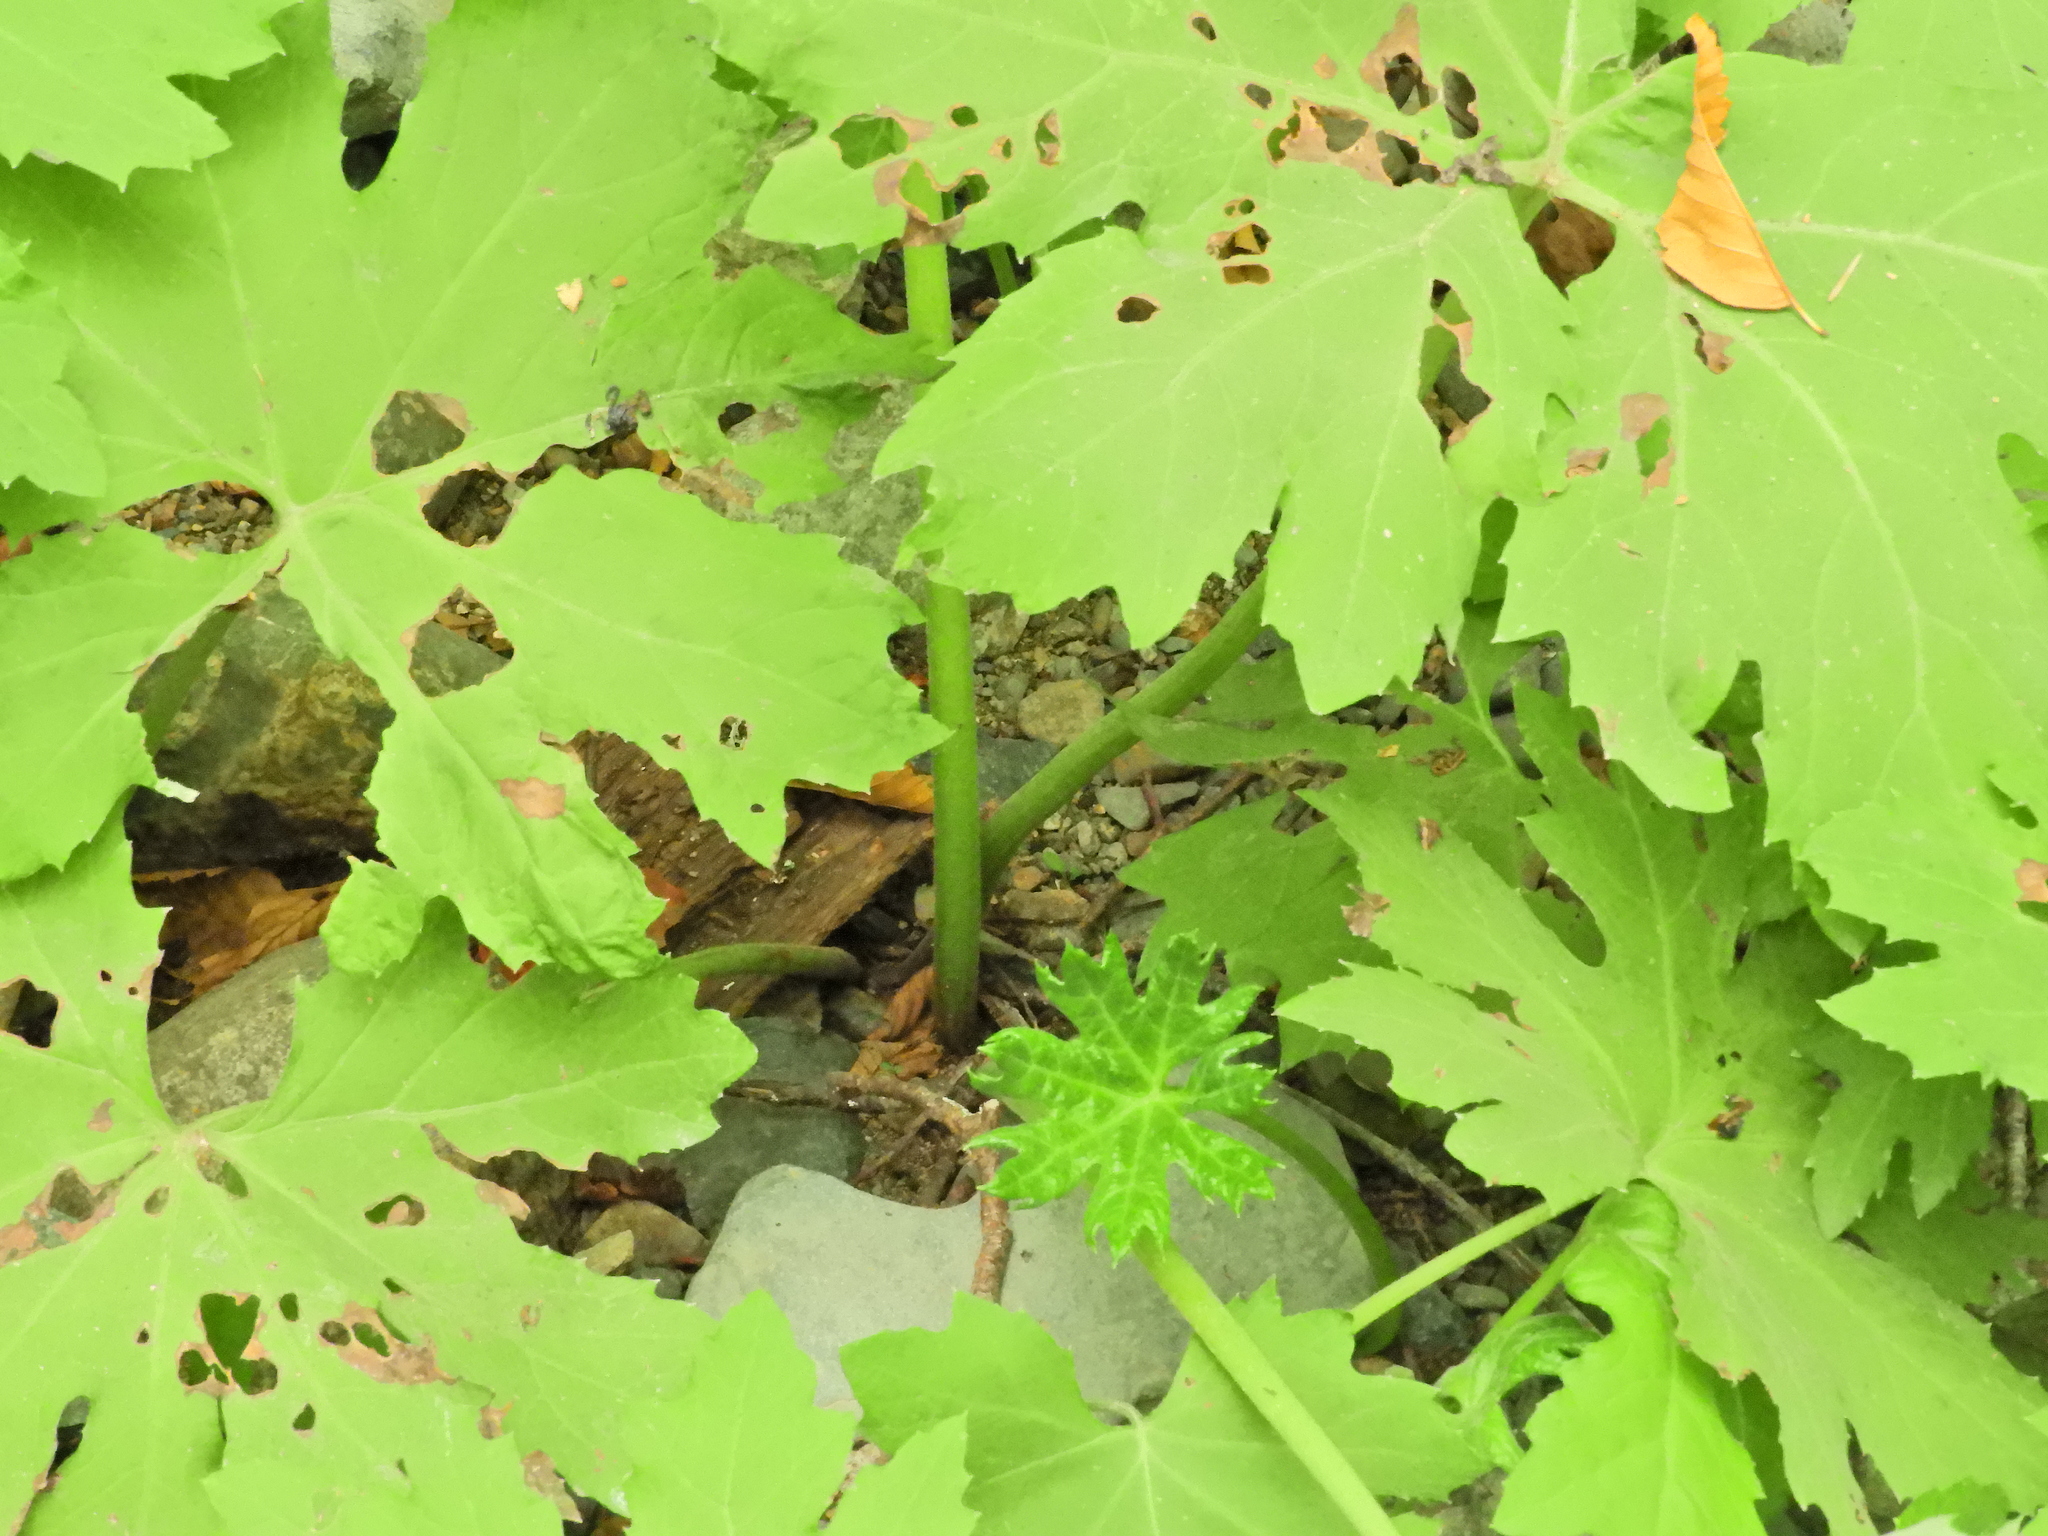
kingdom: Plantae
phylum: Tracheophyta
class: Magnoliopsida
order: Asterales
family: Asteraceae
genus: Petasites
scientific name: Petasites frigidus
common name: Arctic butterbur
